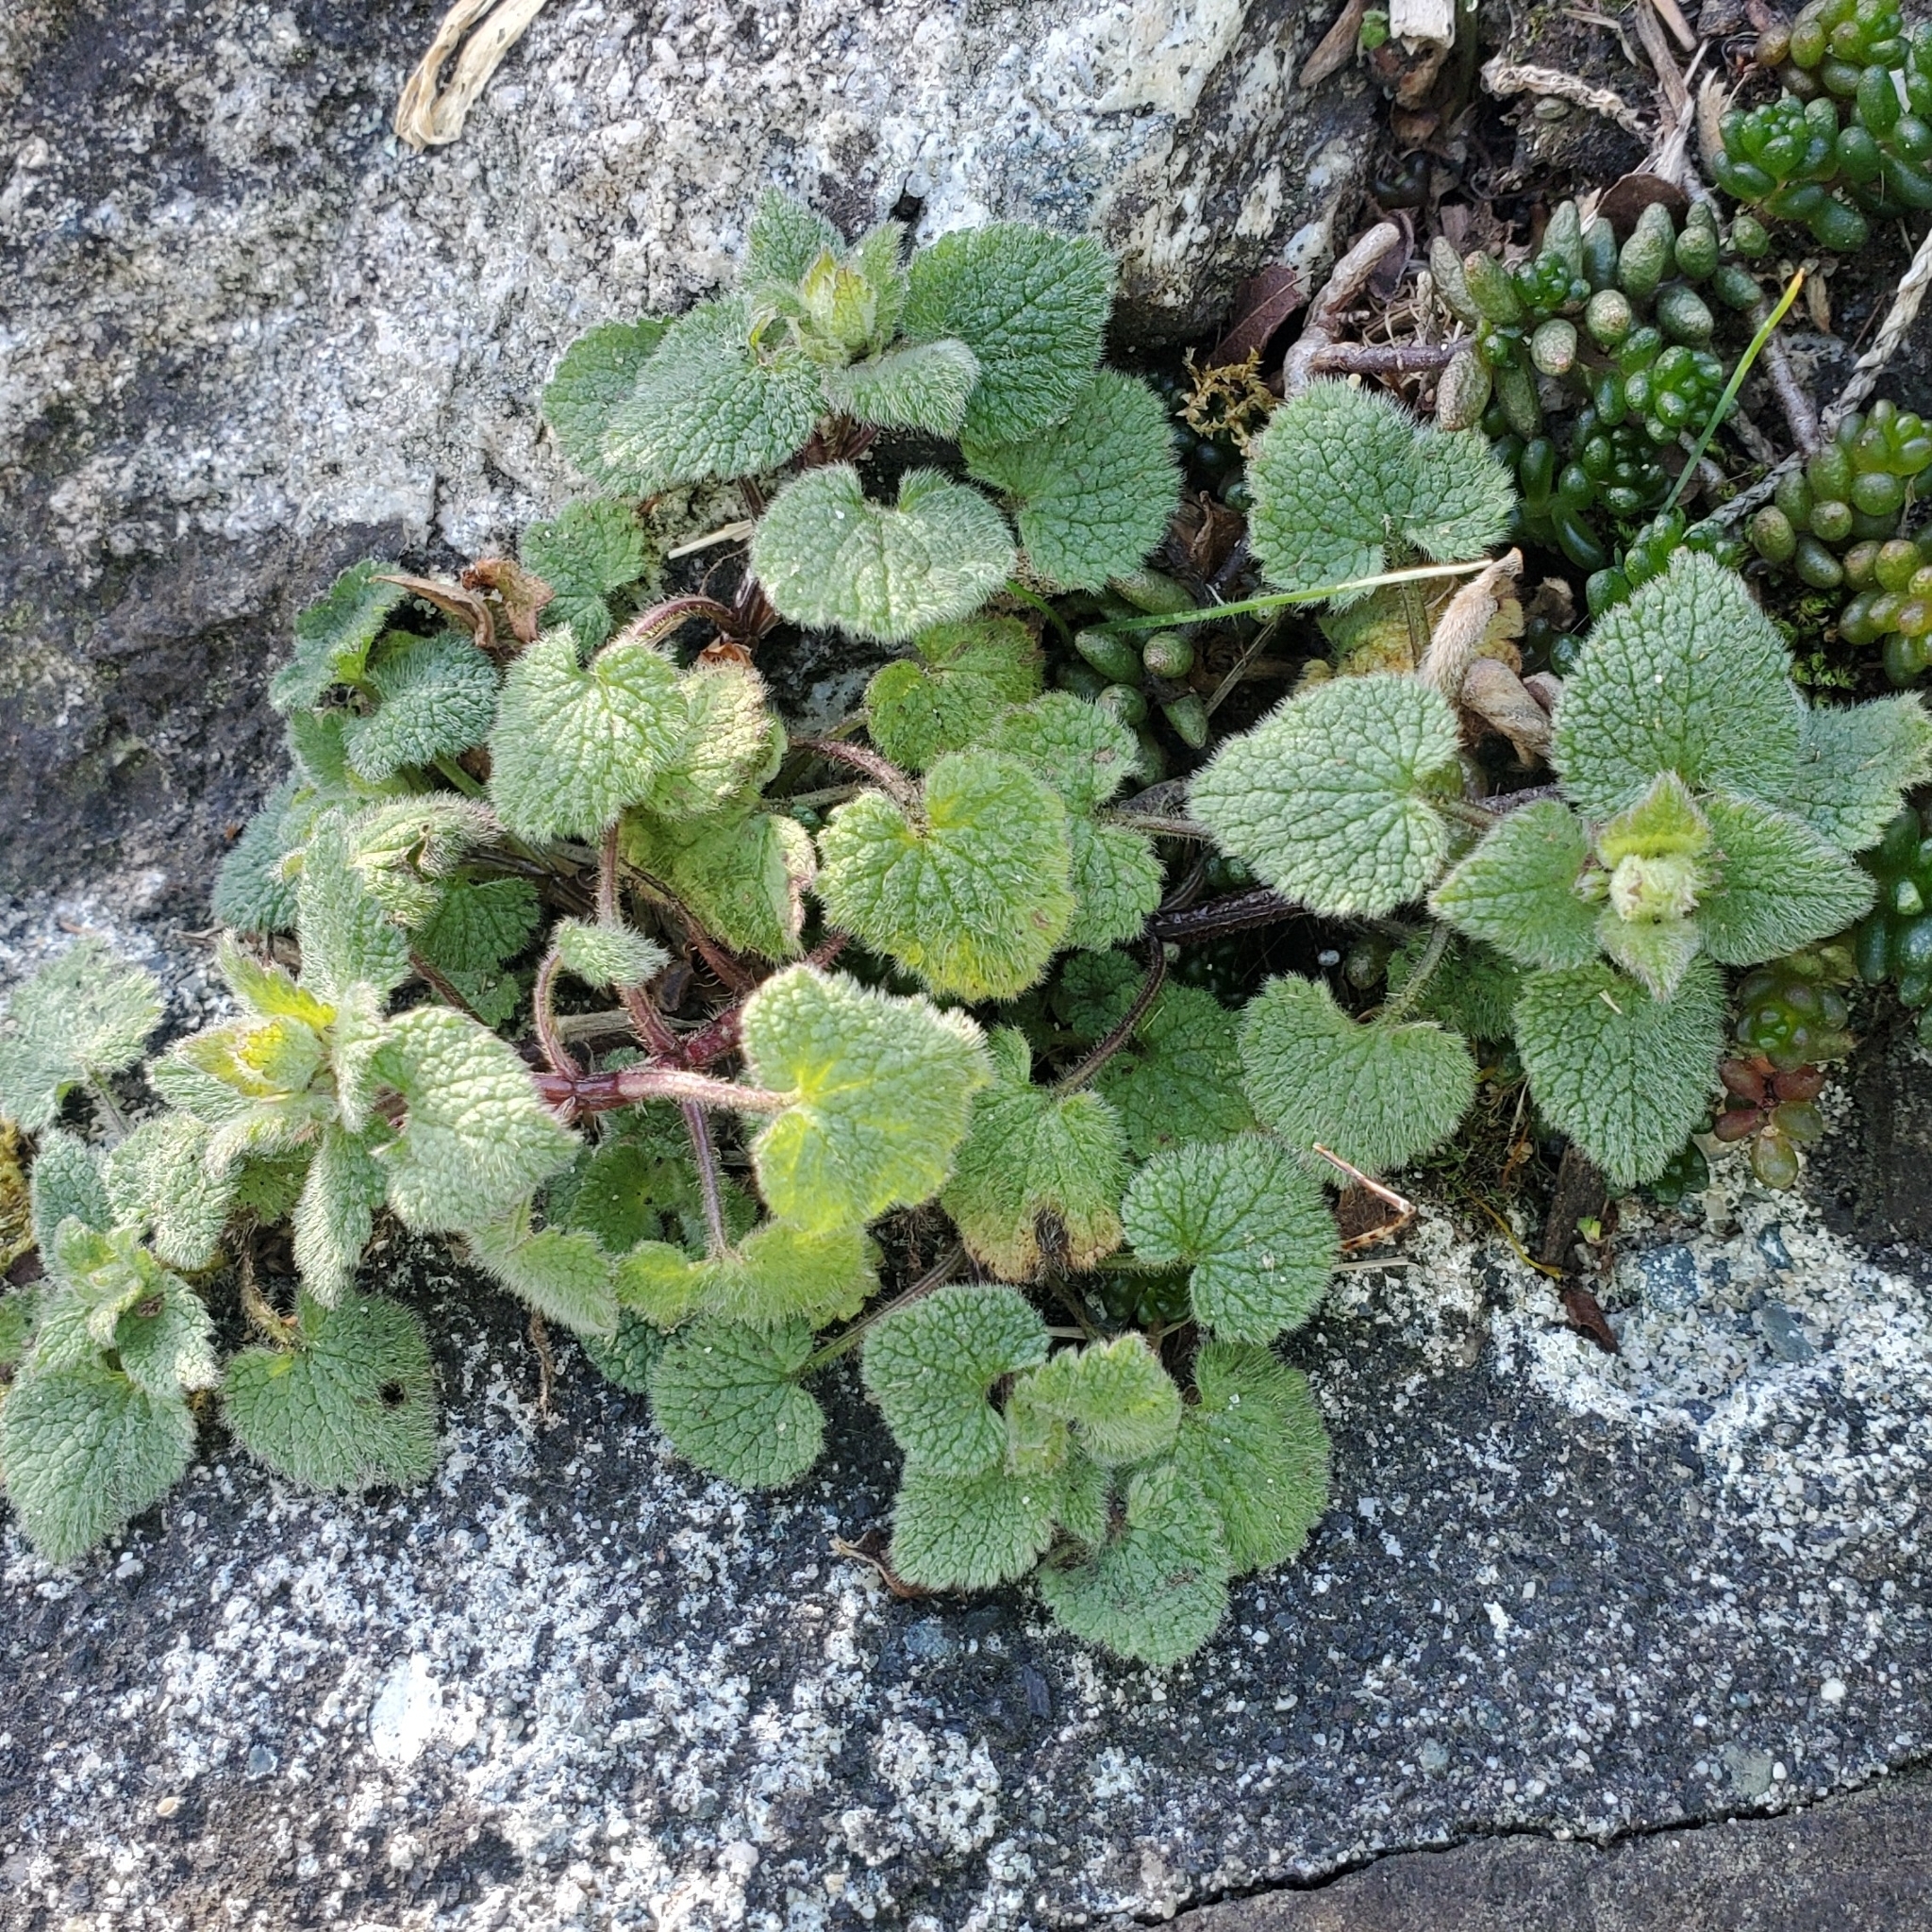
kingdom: Plantae
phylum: Tracheophyta
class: Magnoliopsida
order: Lamiales
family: Lamiaceae
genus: Lamium
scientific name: Lamium purpureum
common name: Red dead-nettle
